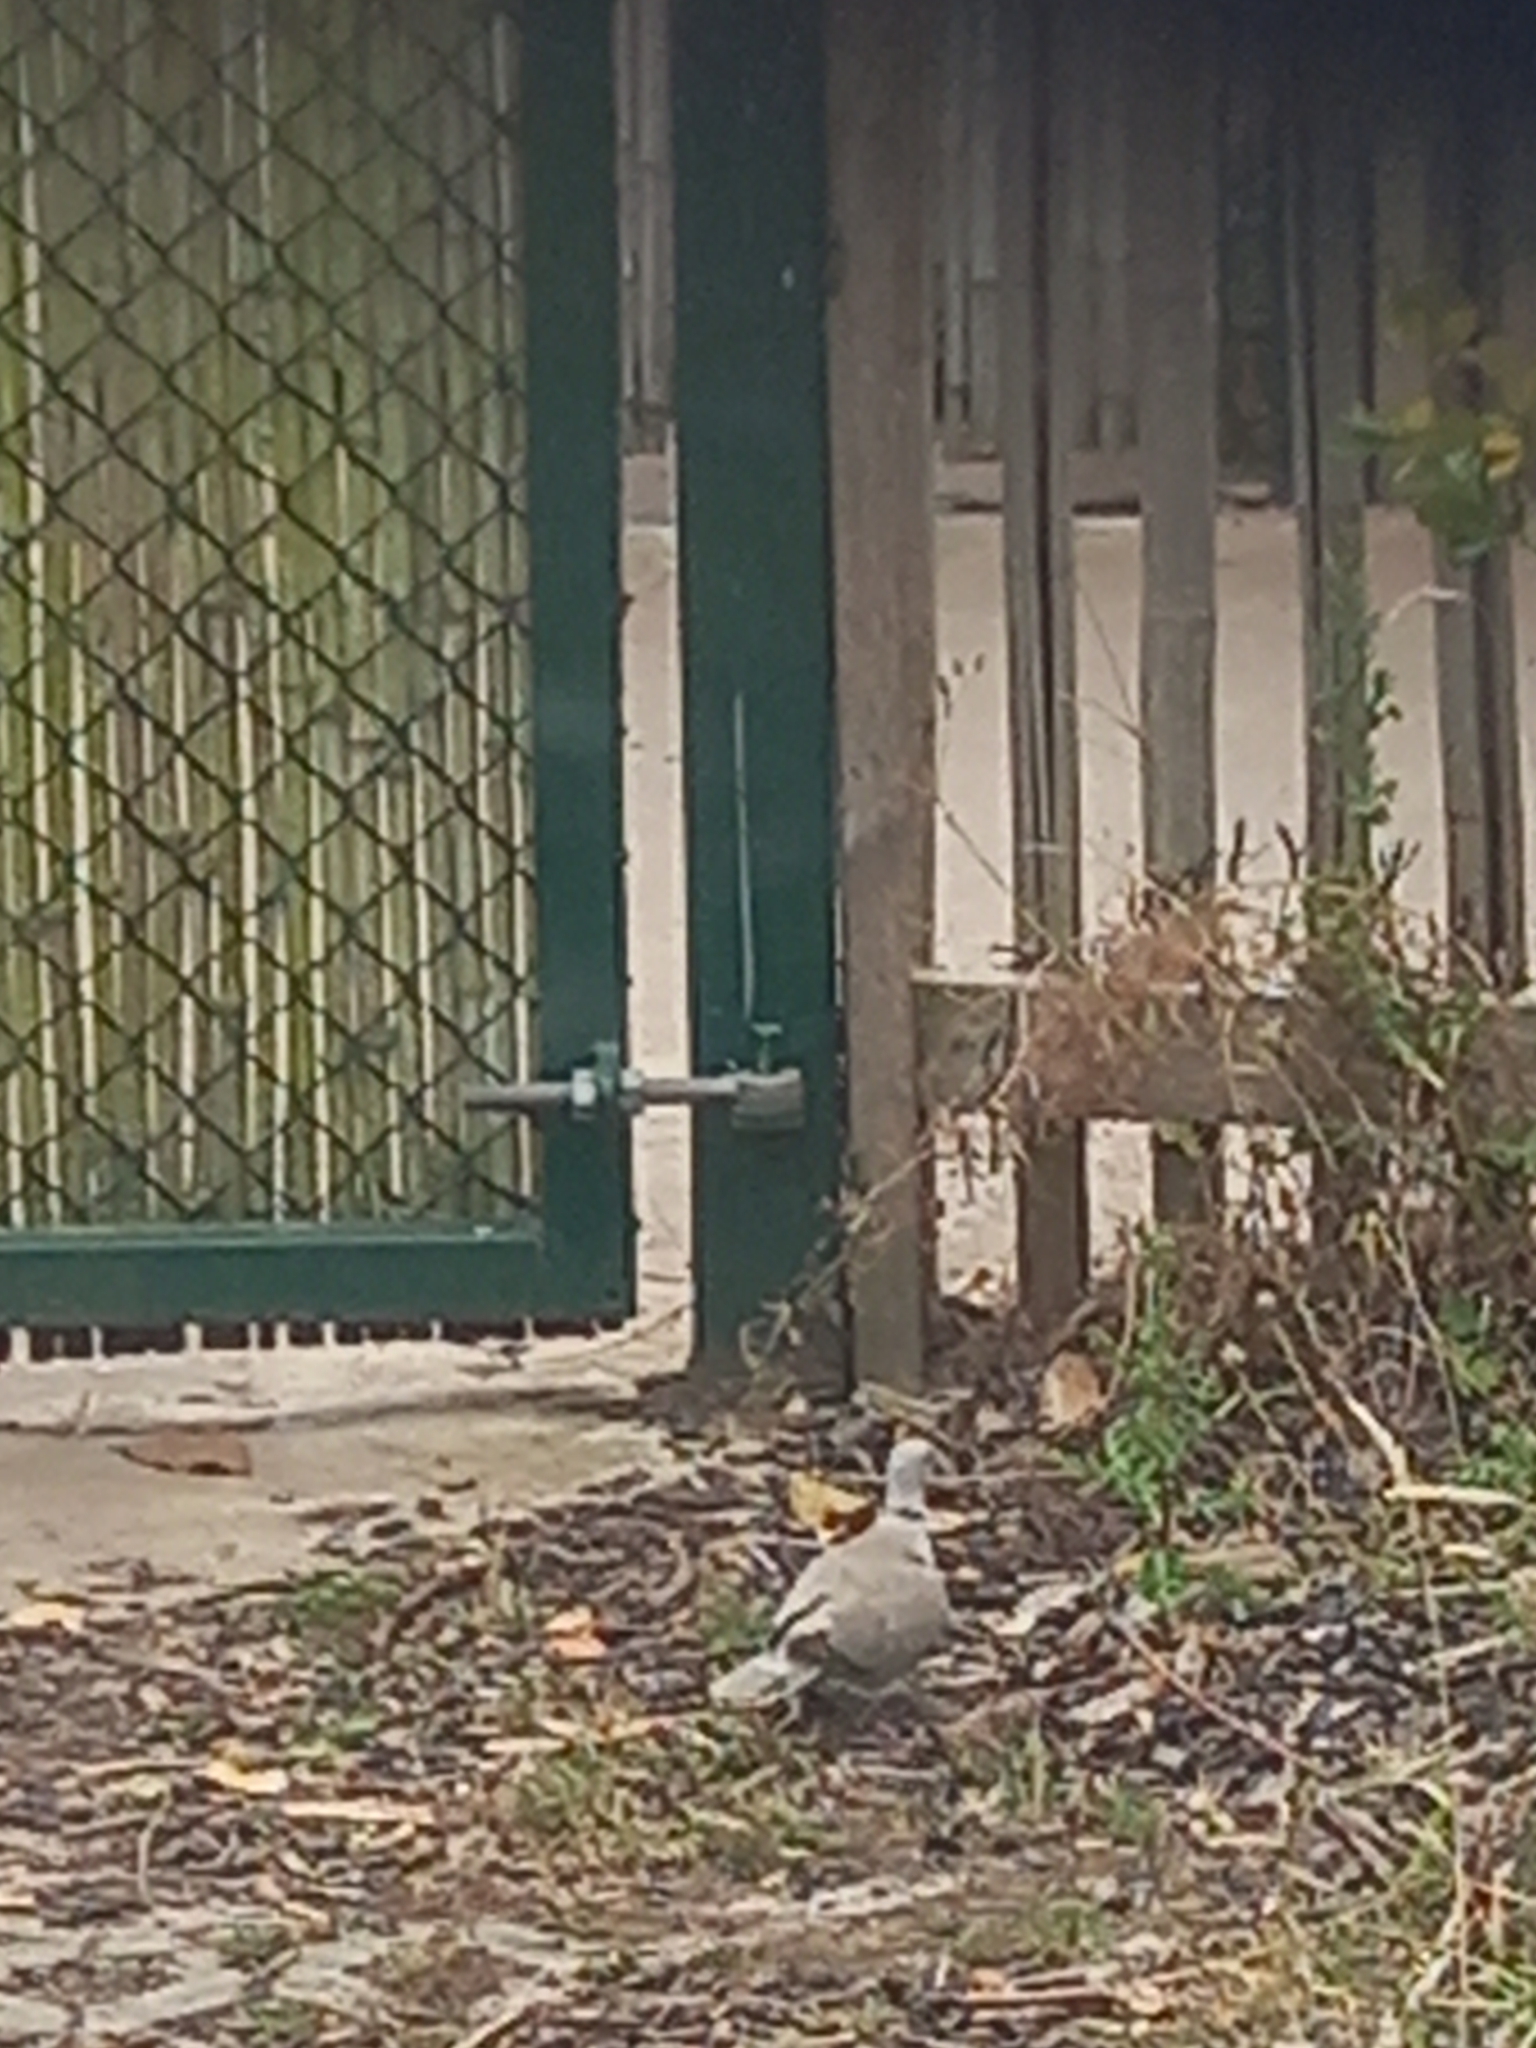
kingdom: Animalia
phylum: Chordata
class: Aves
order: Columbiformes
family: Columbidae
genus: Streptopelia
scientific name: Streptopelia decaocto
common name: Eurasian collared dove
